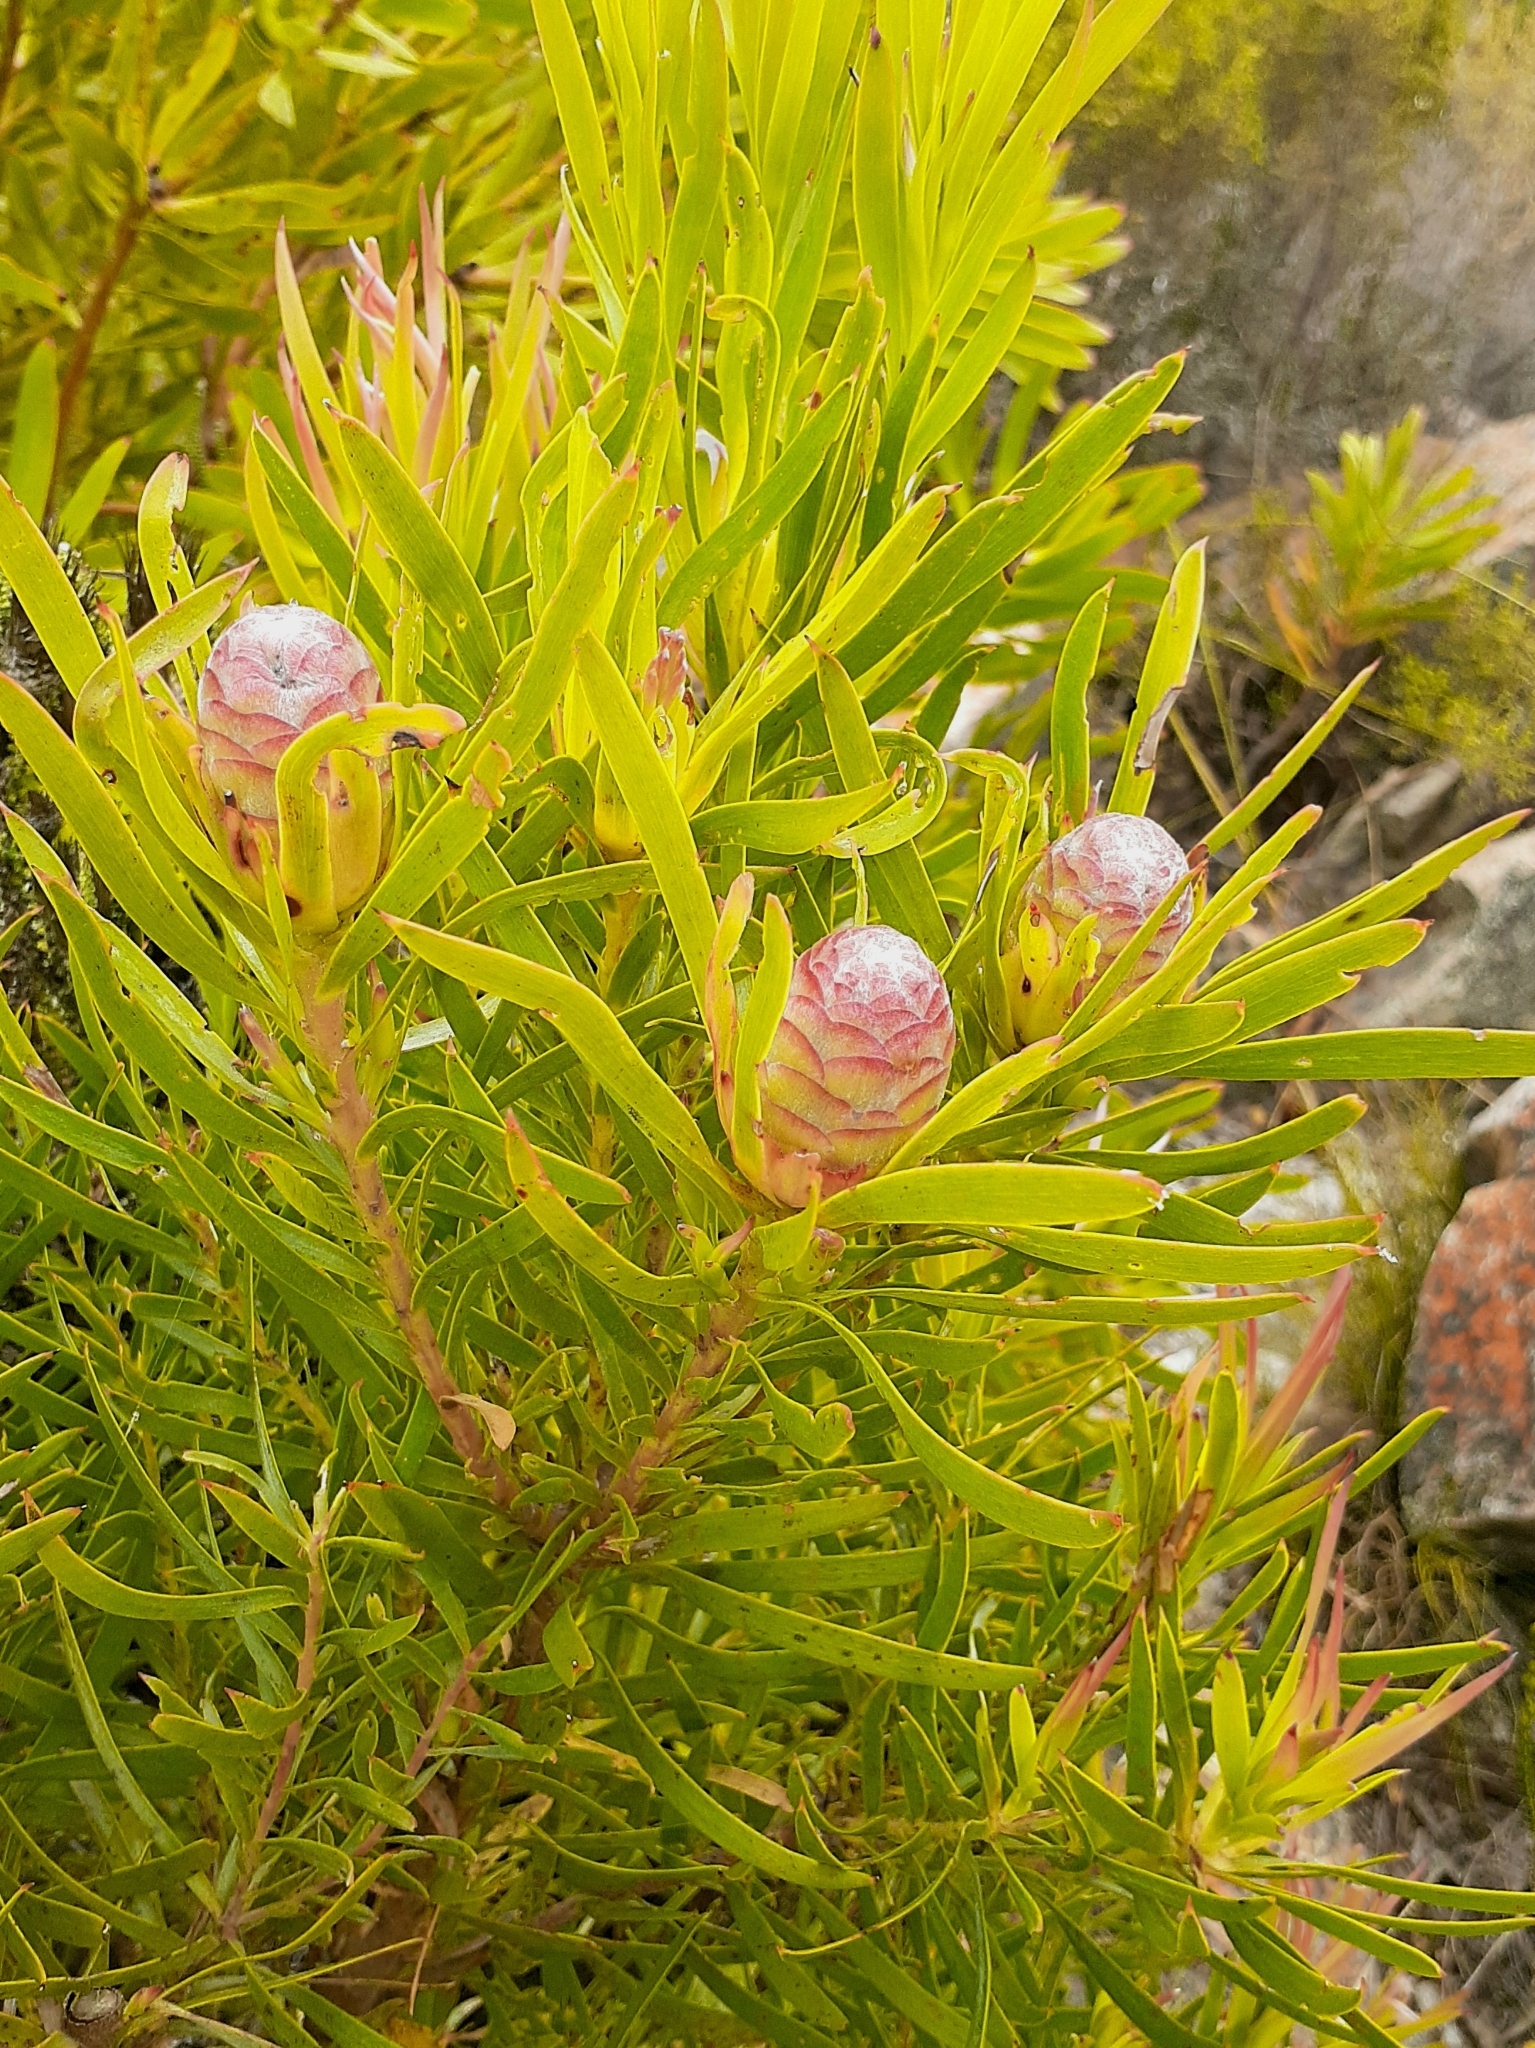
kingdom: Plantae
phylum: Tracheophyta
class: Magnoliopsida
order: Proteales
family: Proteaceae
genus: Leucadendron
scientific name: Leucadendron xanthoconus
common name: Sickle-leaf conebush
